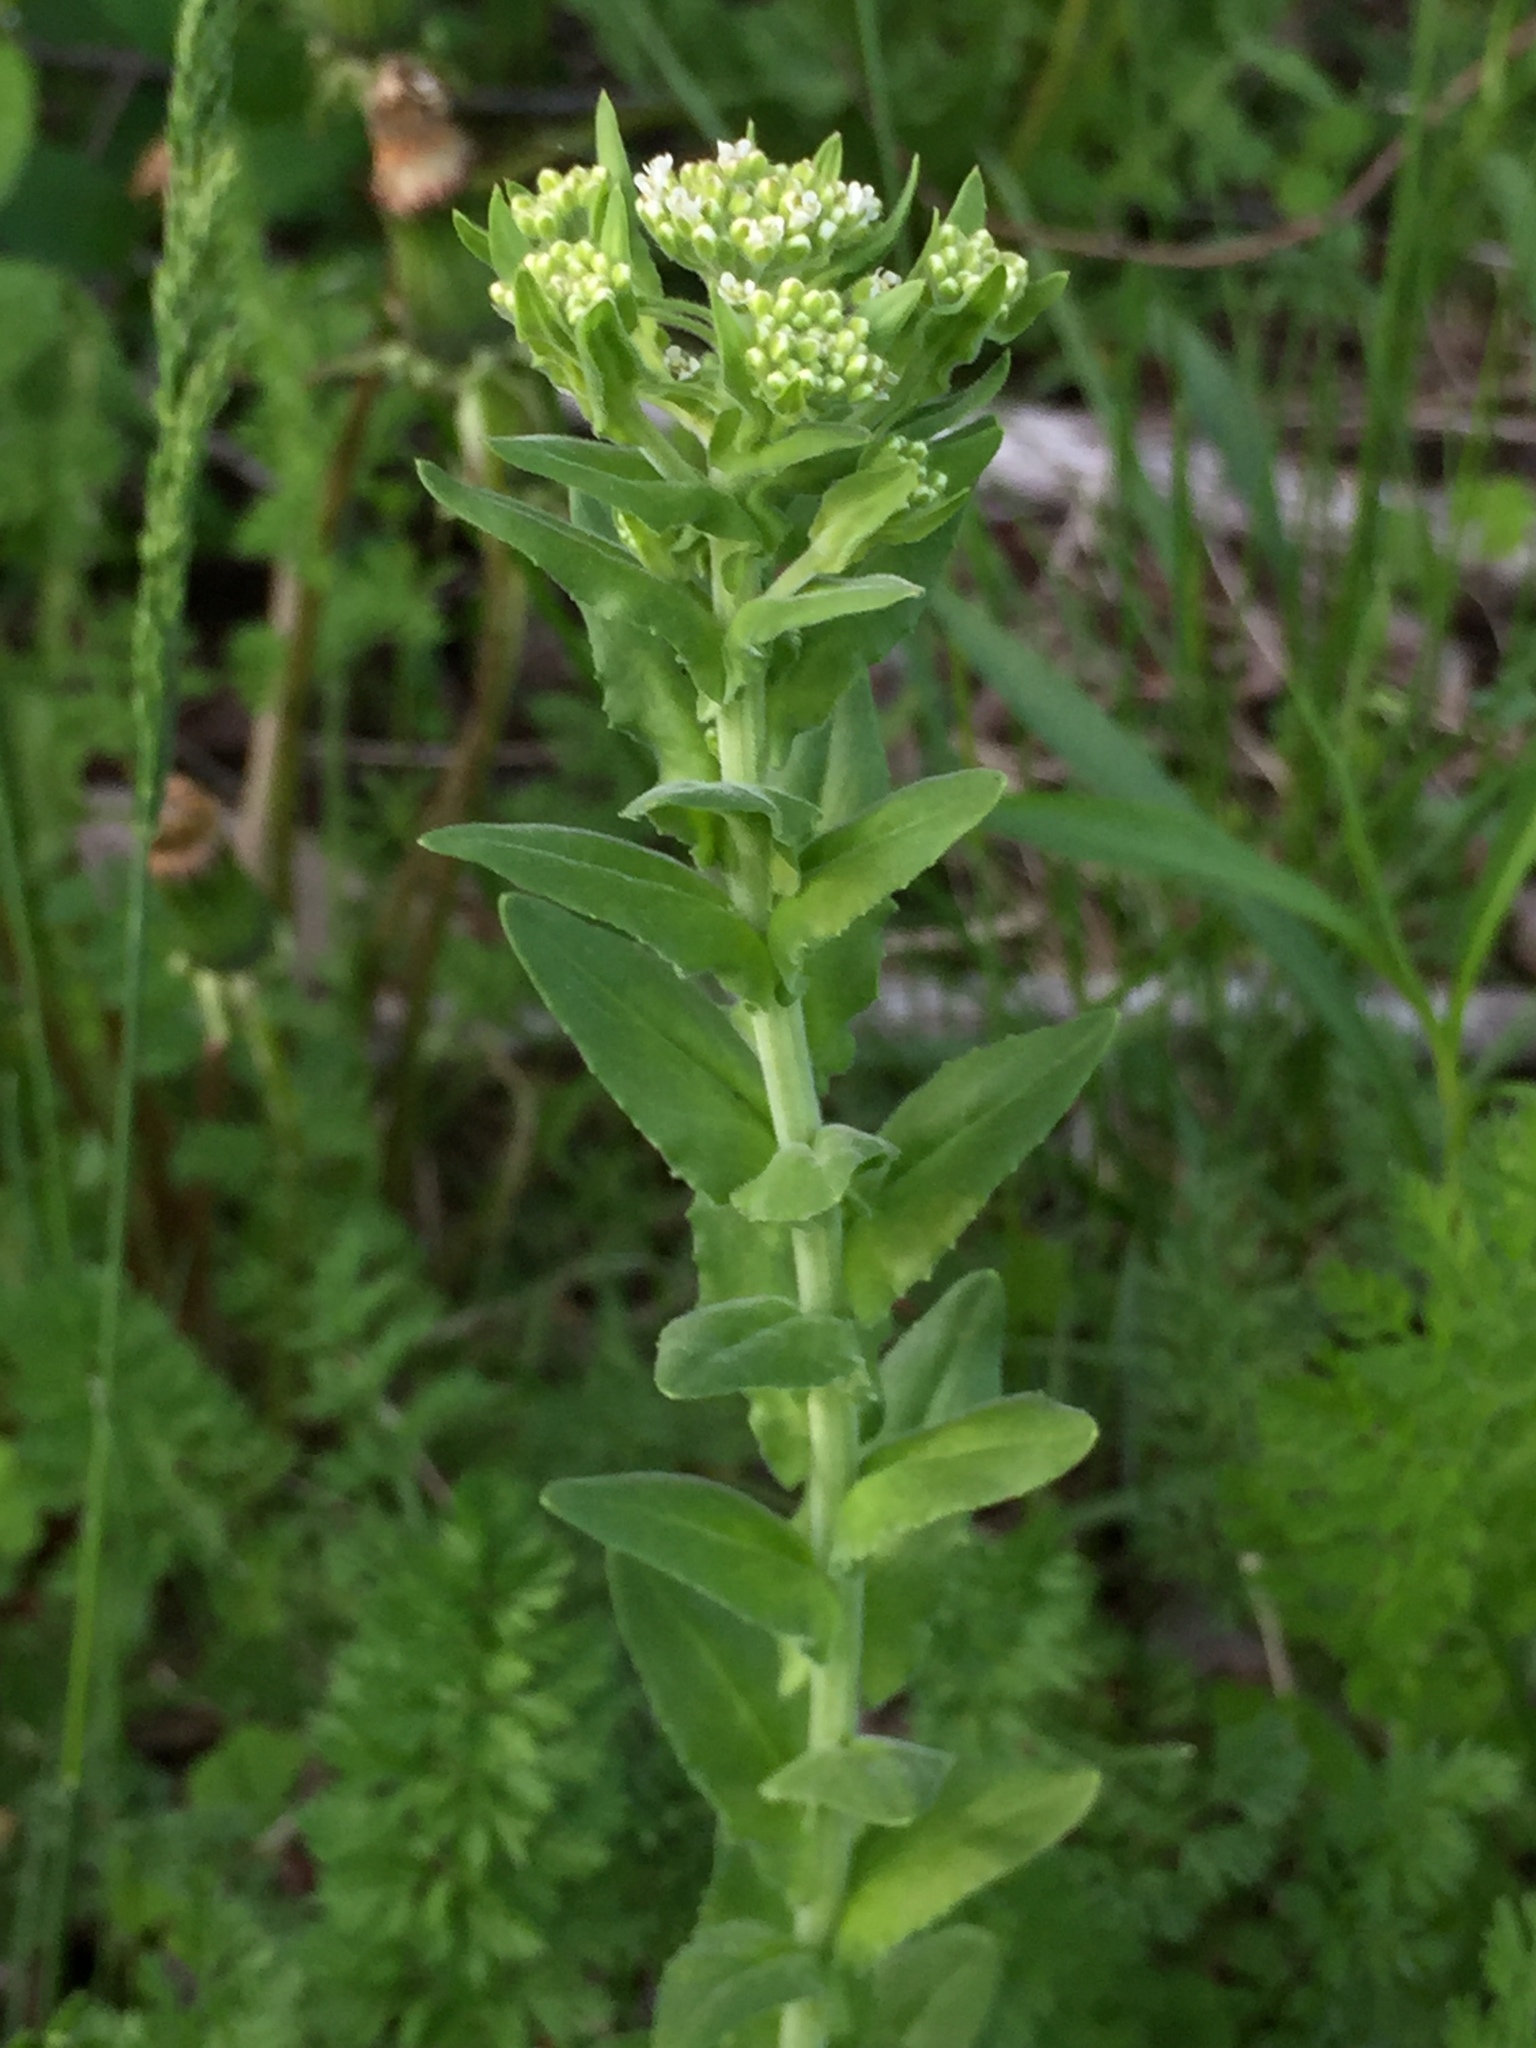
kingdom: Plantae
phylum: Tracheophyta
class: Magnoliopsida
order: Brassicales
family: Brassicaceae
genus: Lepidium
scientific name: Lepidium campestre
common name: Field pepperwort
